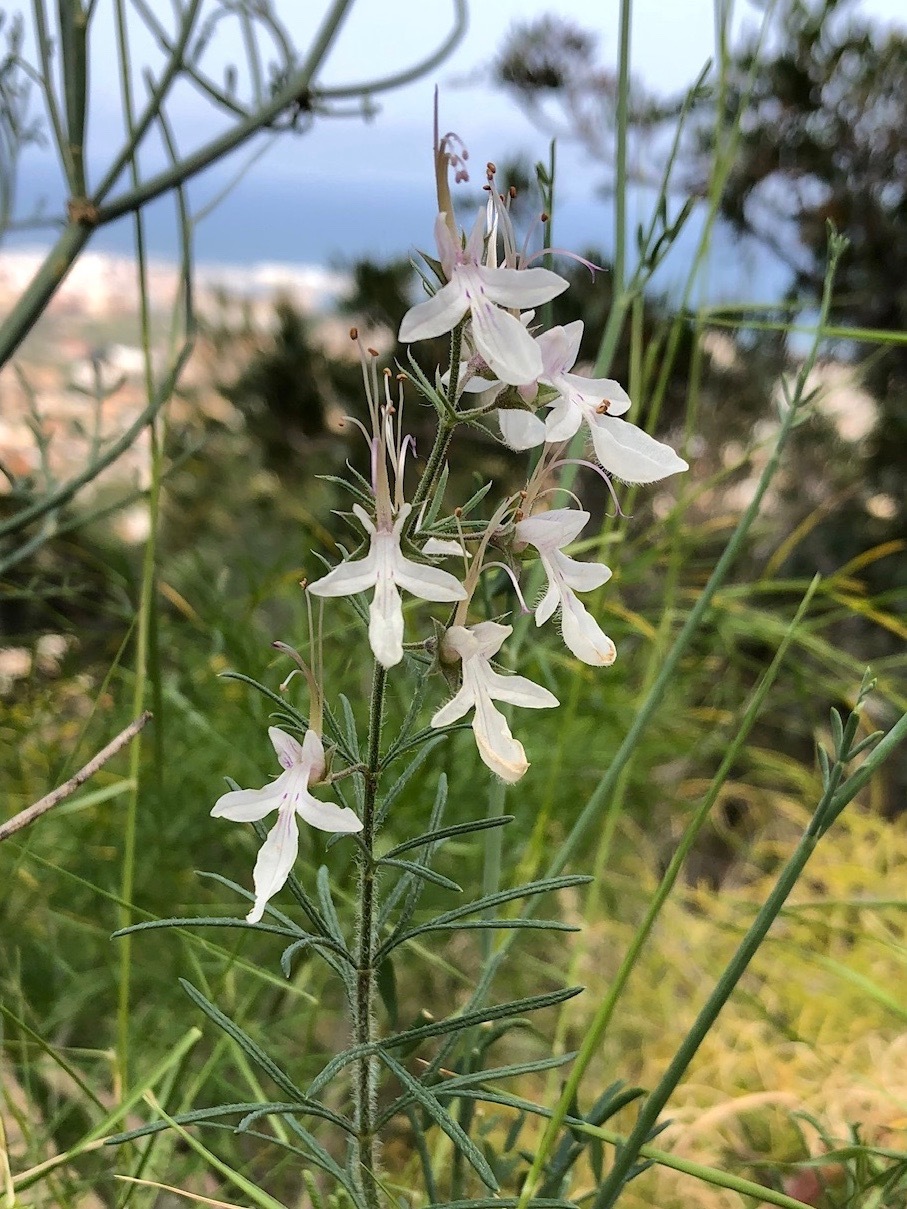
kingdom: Plantae
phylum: Tracheophyta
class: Magnoliopsida
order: Lamiales
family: Lamiaceae
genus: Teucrium
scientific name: Teucrium pseudochamaepitys
